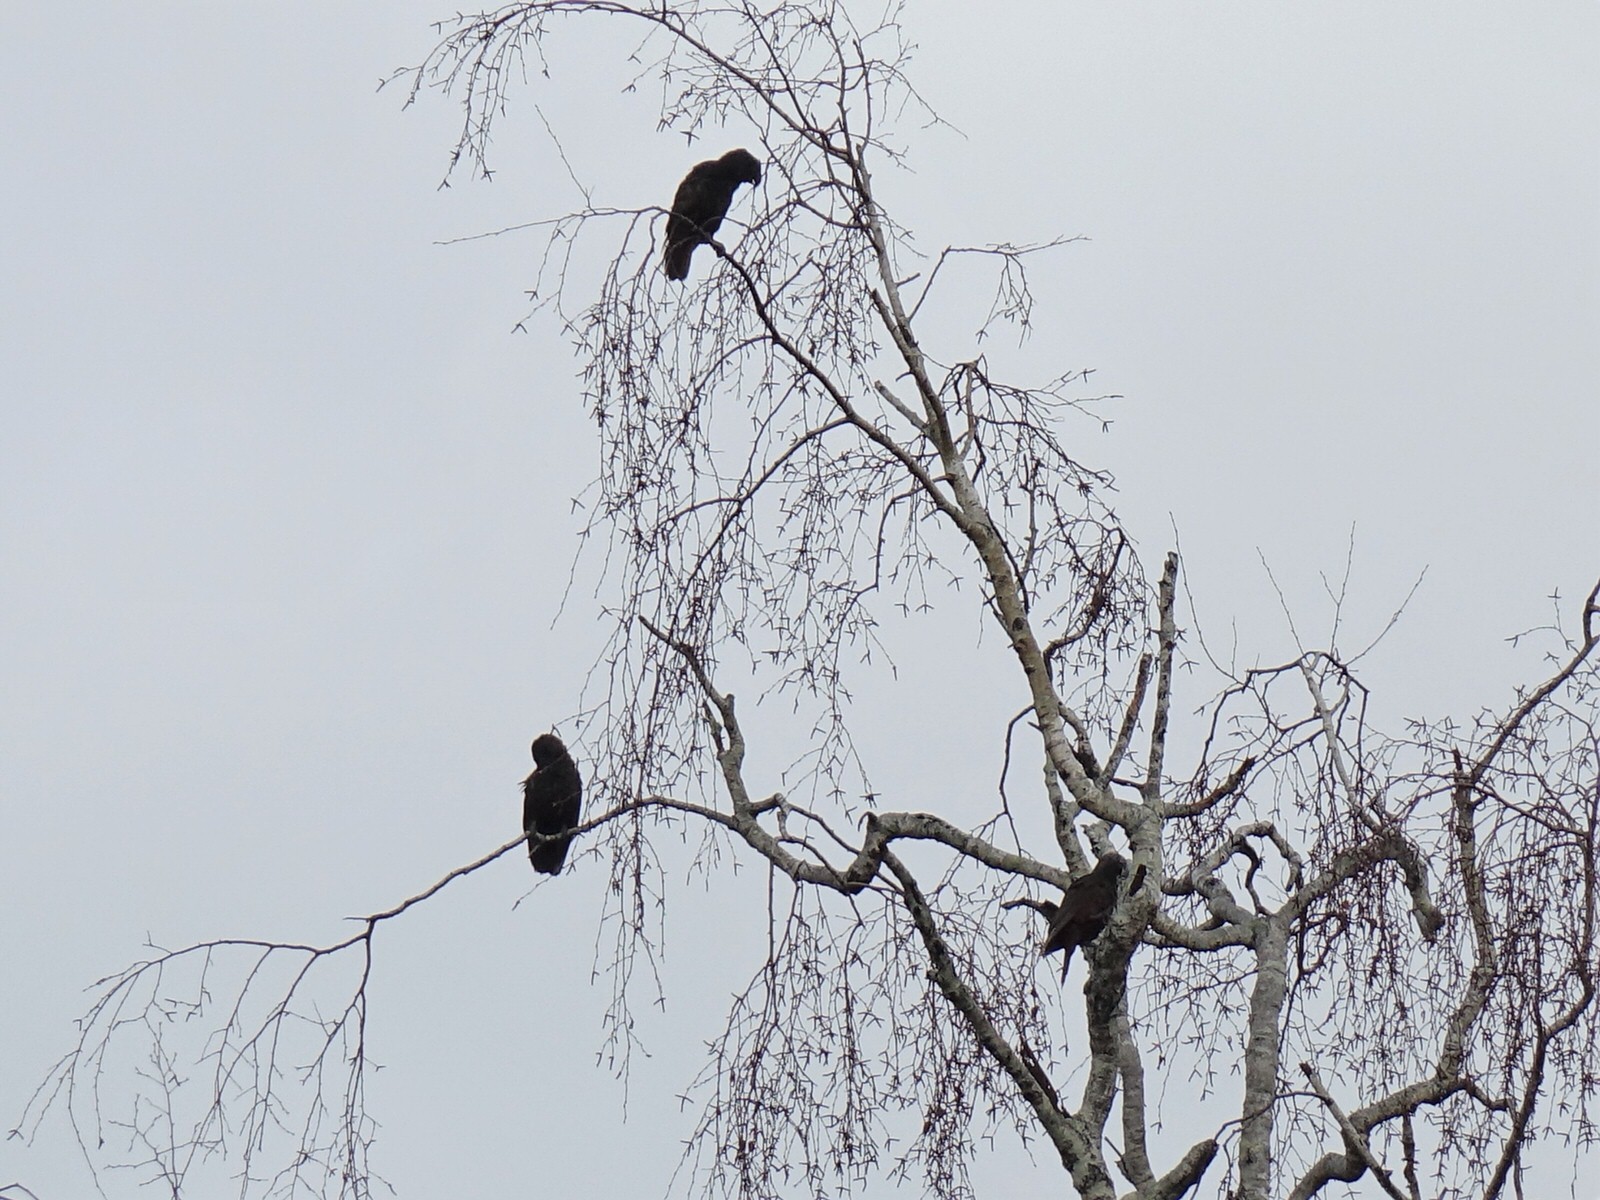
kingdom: Animalia
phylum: Chordata
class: Aves
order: Psittaciformes
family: Psittacidae
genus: Nestor
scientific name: Nestor meridionalis
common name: New zealand kaka
